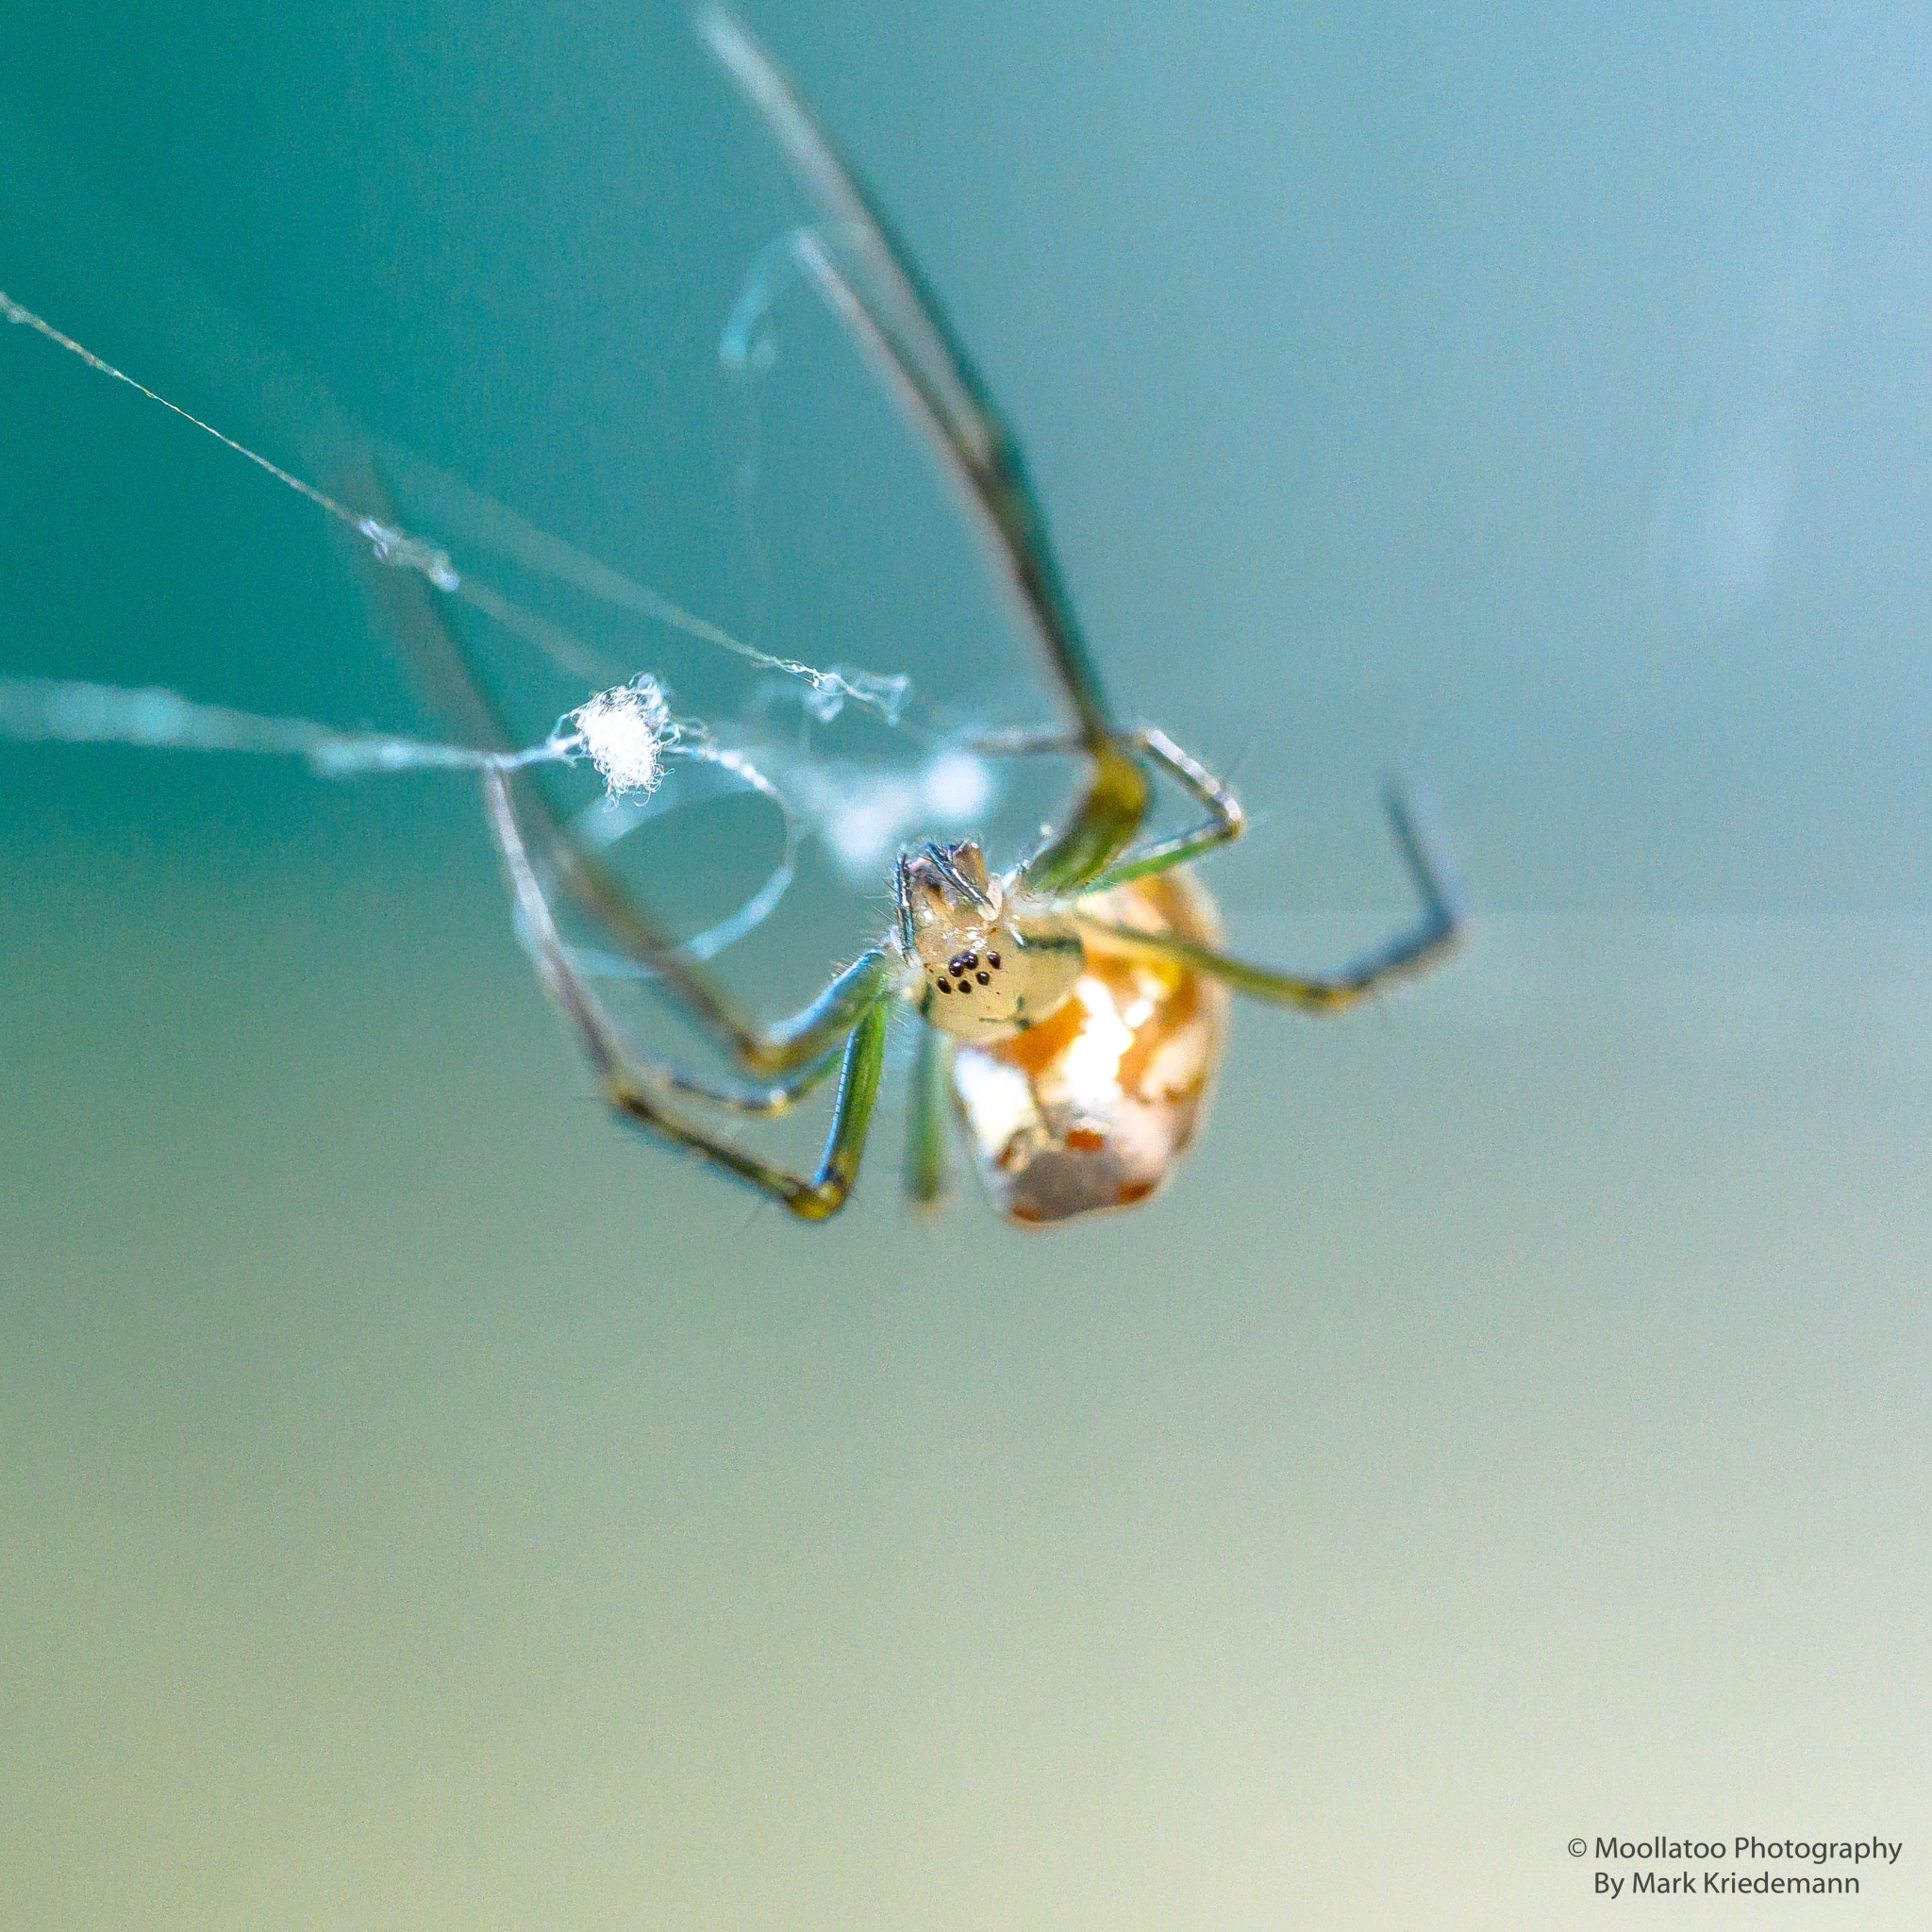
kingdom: Animalia
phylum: Arthropoda
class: Arachnida
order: Araneae
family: Tetragnathidae
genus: Leucauge
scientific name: Leucauge dromedaria
